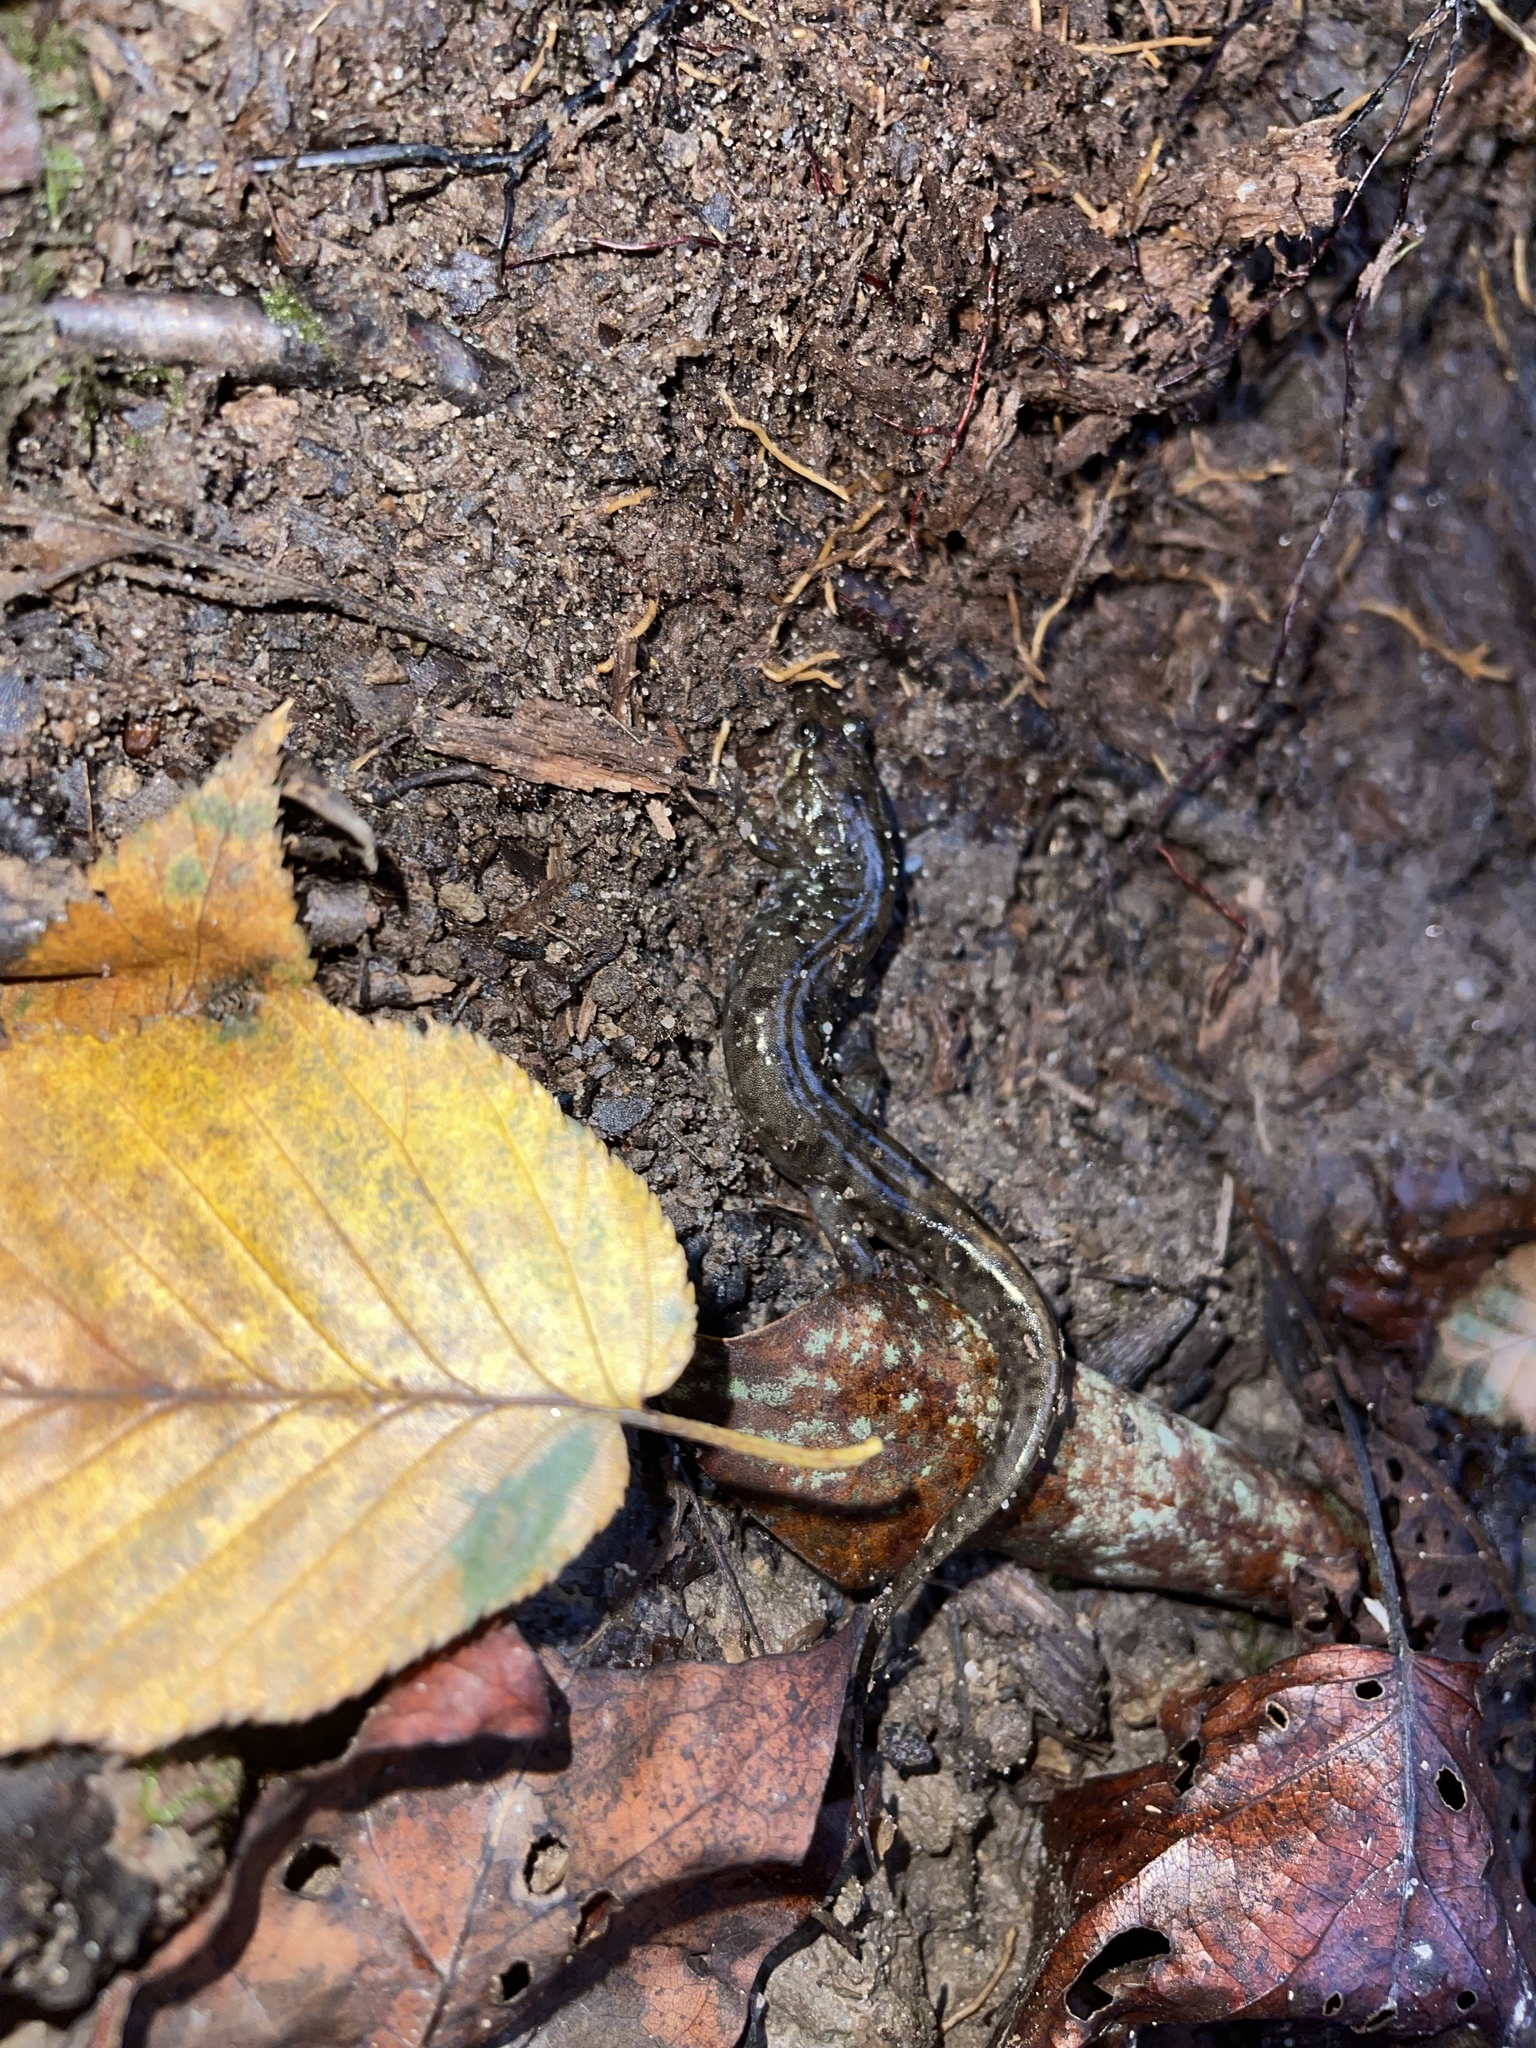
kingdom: Animalia
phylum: Chordata
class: Amphibia
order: Caudata
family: Plethodontidae
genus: Desmognathus
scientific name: Desmognathus monticola
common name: Seal salamander
